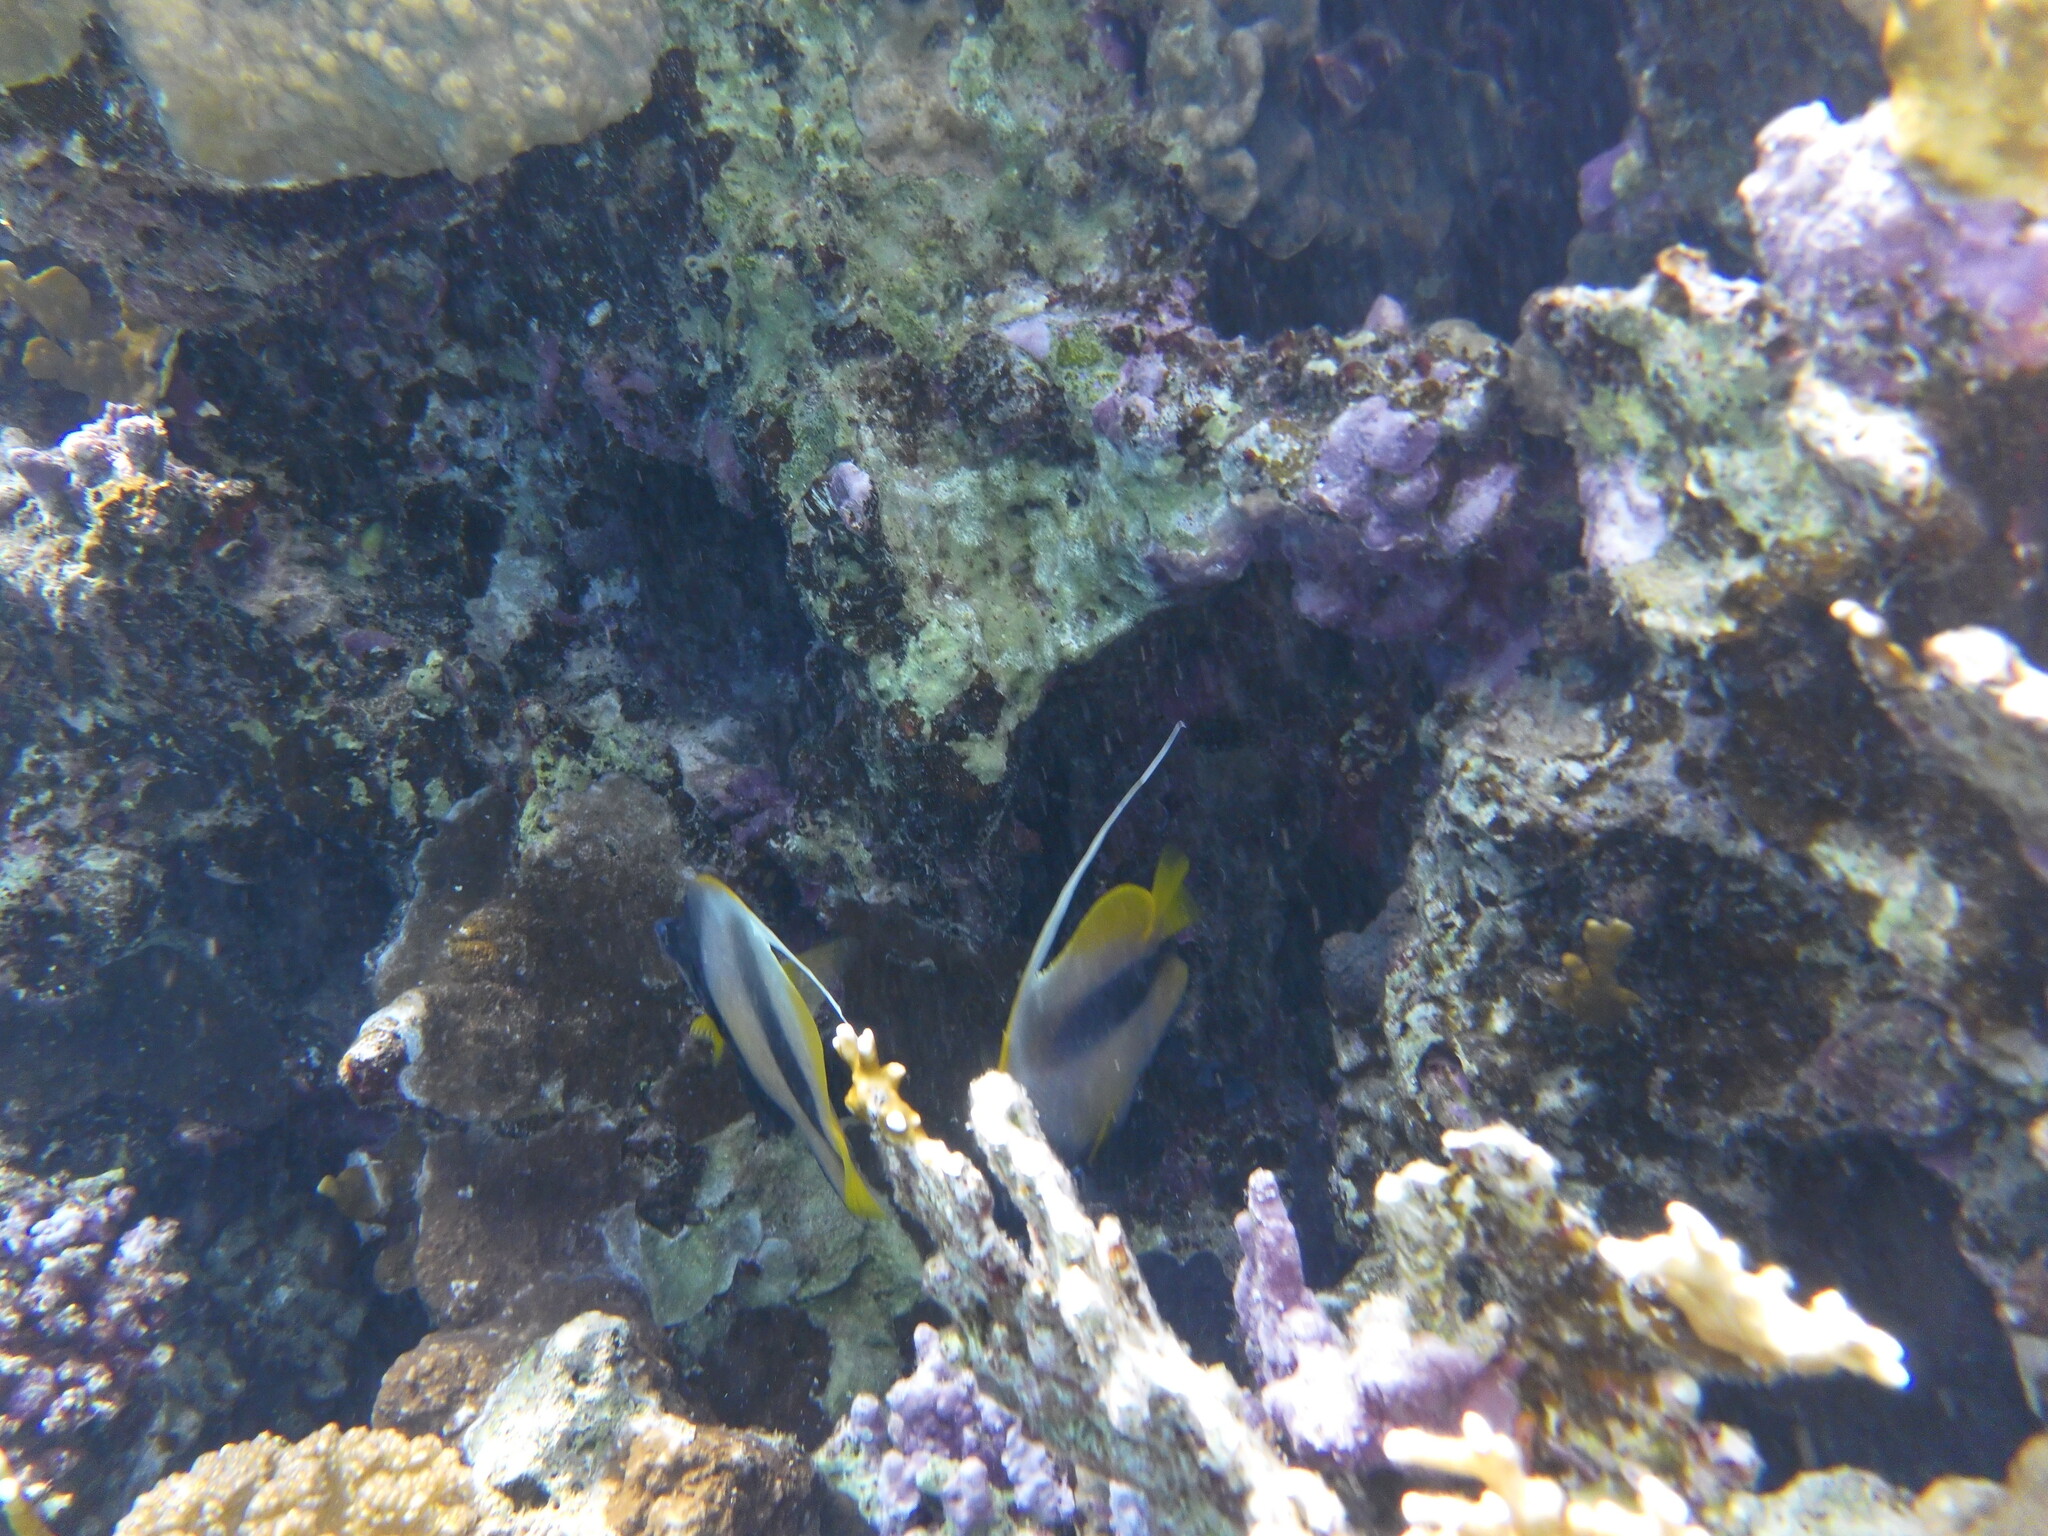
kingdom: Animalia
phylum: Chordata
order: Perciformes
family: Chaetodontidae
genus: Heniochus
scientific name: Heniochus intermedius
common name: Red sea bannerfish
